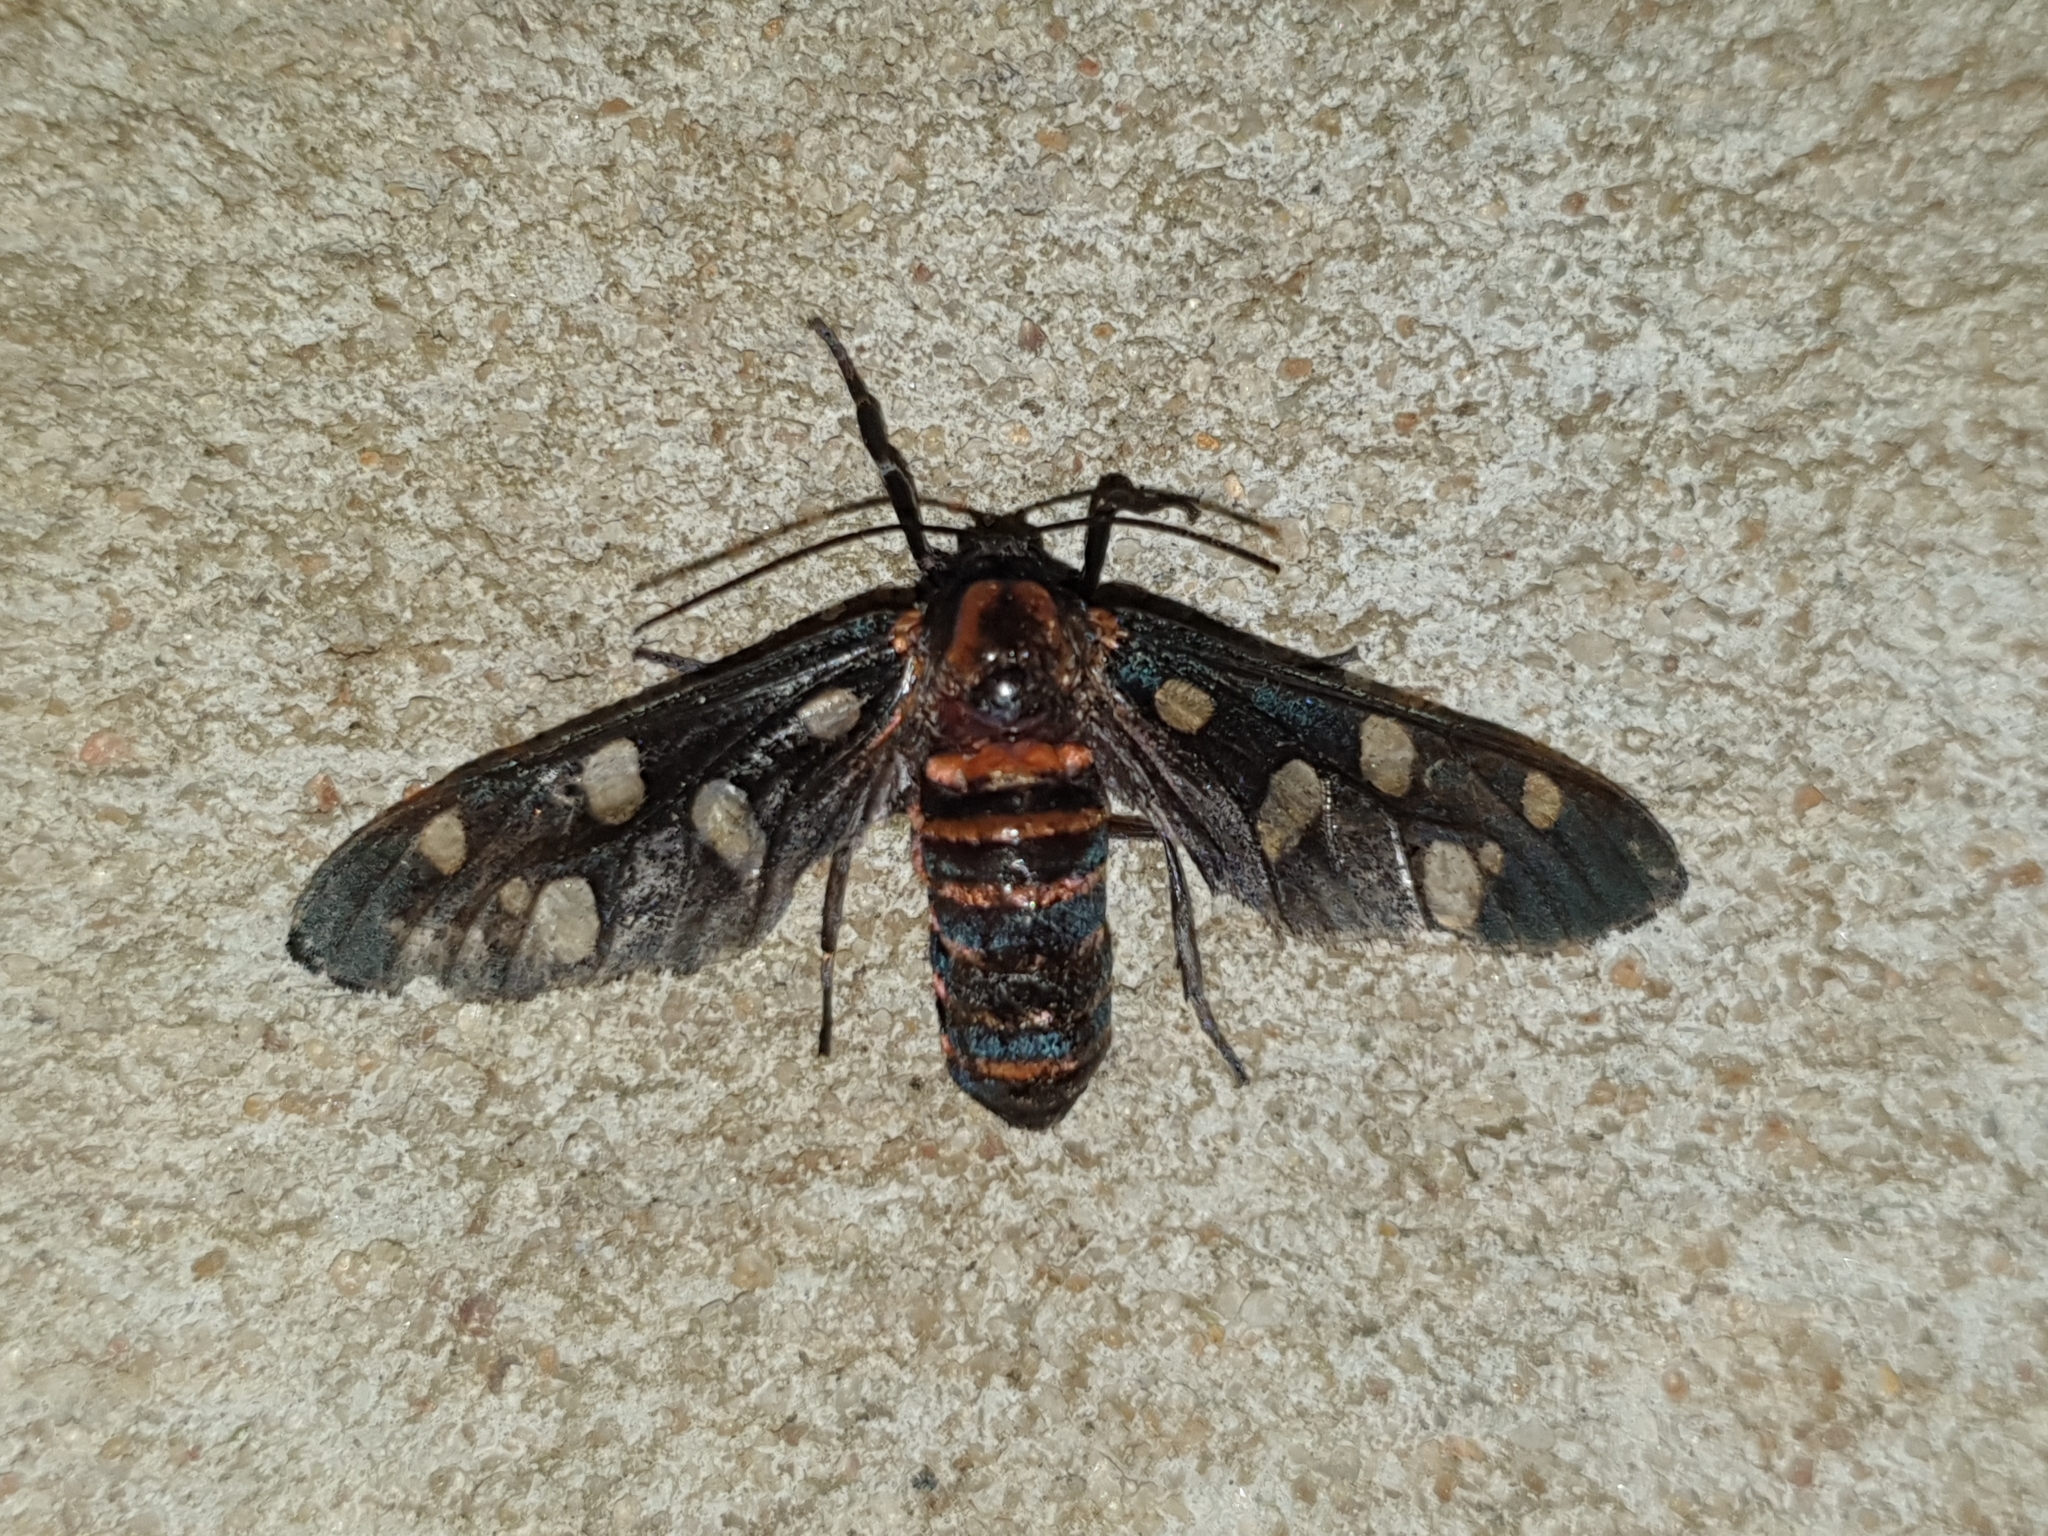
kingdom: Animalia
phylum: Arthropoda
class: Insecta
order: Lepidoptera
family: Erebidae
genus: Amata
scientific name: Amata passalis
